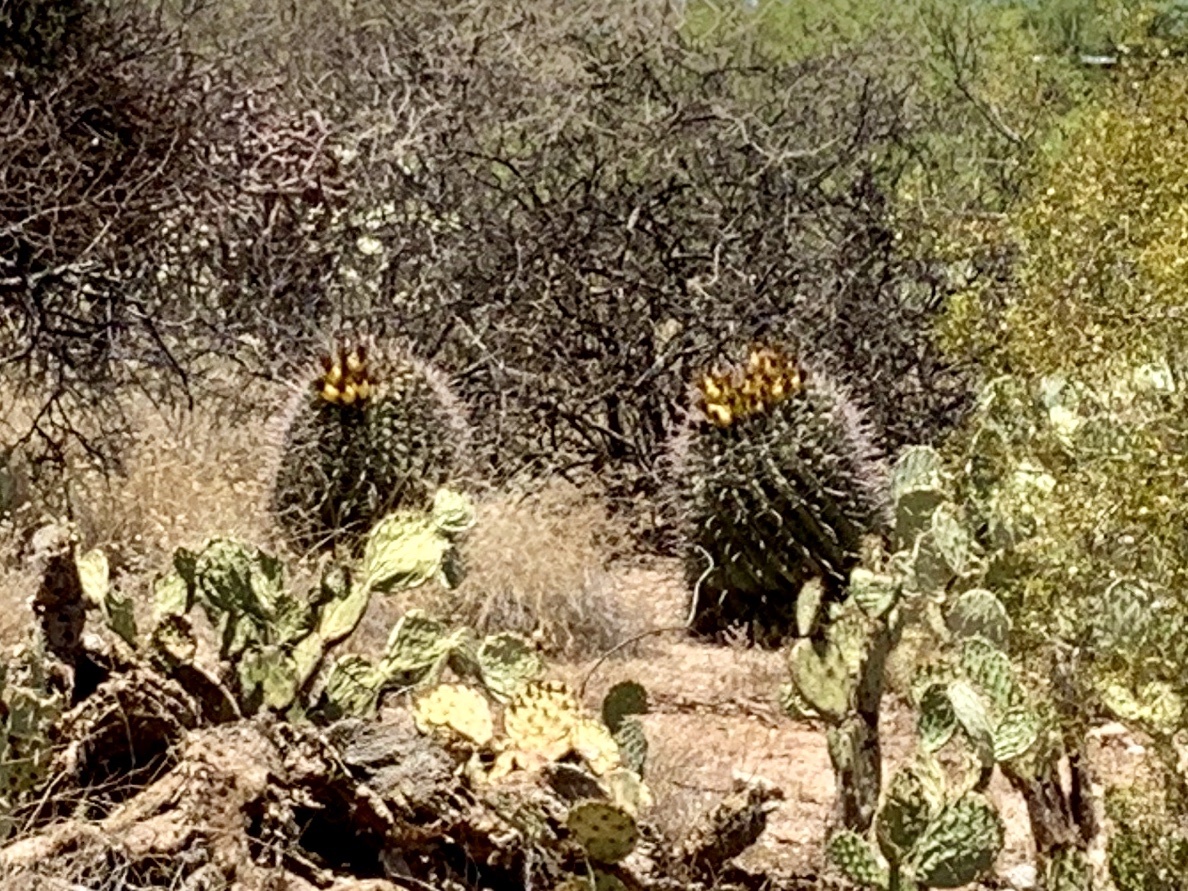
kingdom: Plantae
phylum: Tracheophyta
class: Magnoliopsida
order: Caryophyllales
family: Cactaceae
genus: Ferocactus
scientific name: Ferocactus wislizeni
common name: Candy barrel cactus
